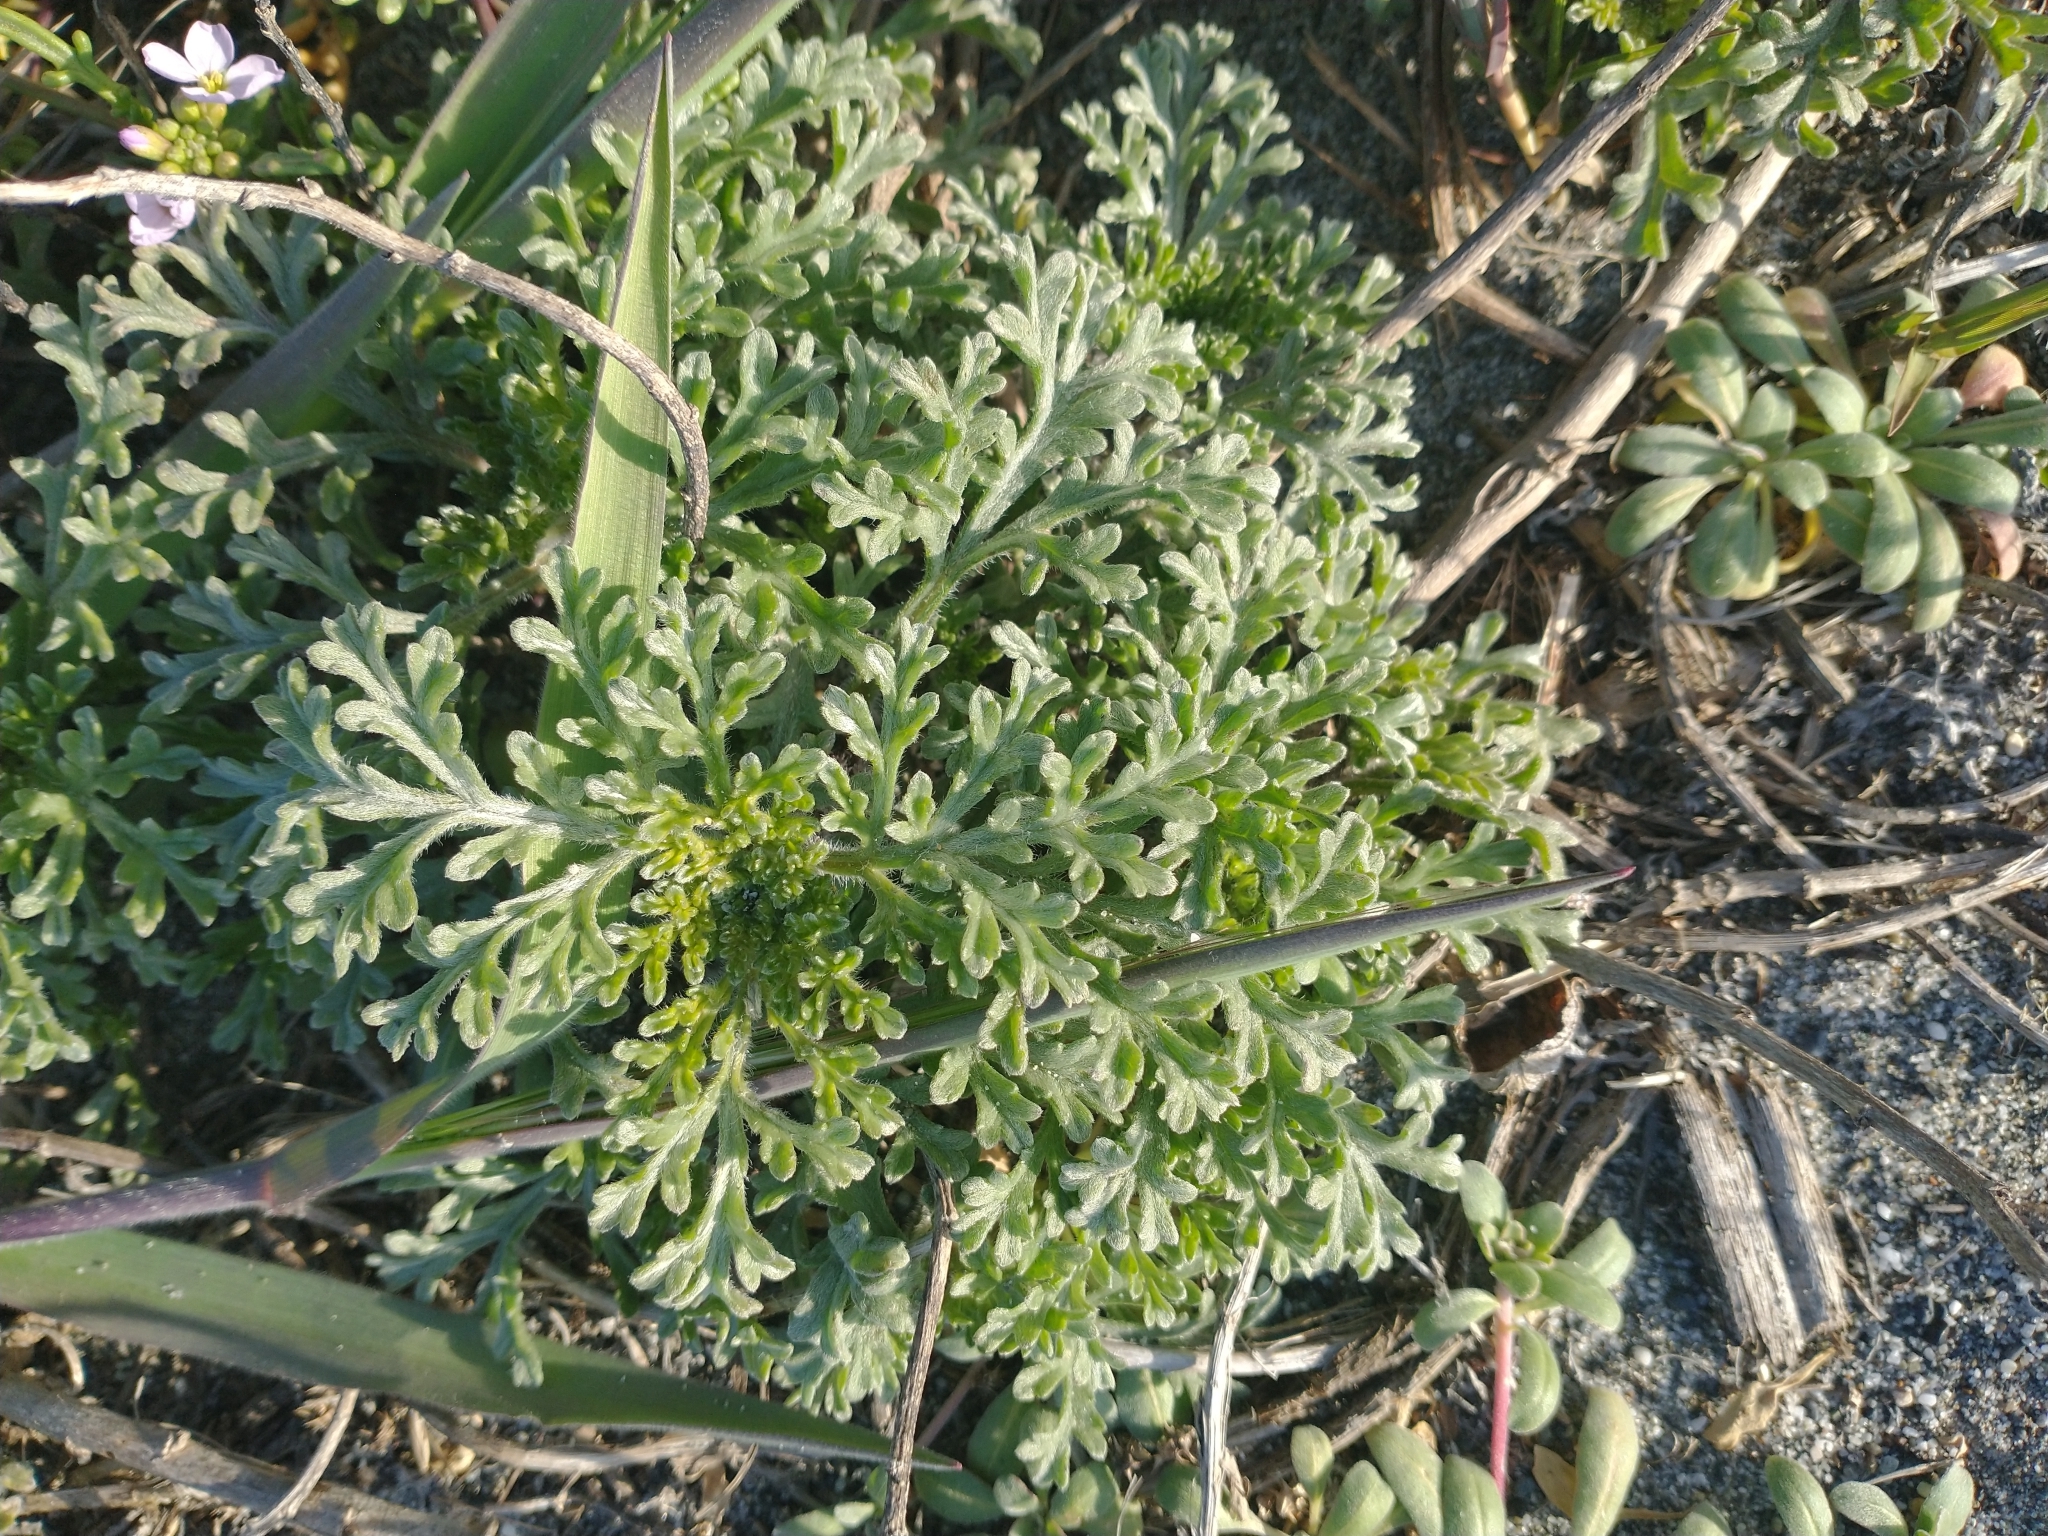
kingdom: Plantae
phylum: Tracheophyta
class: Magnoliopsida
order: Asterales
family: Asteraceae
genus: Ambrosia
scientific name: Ambrosia chamissonis
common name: Beachbur
